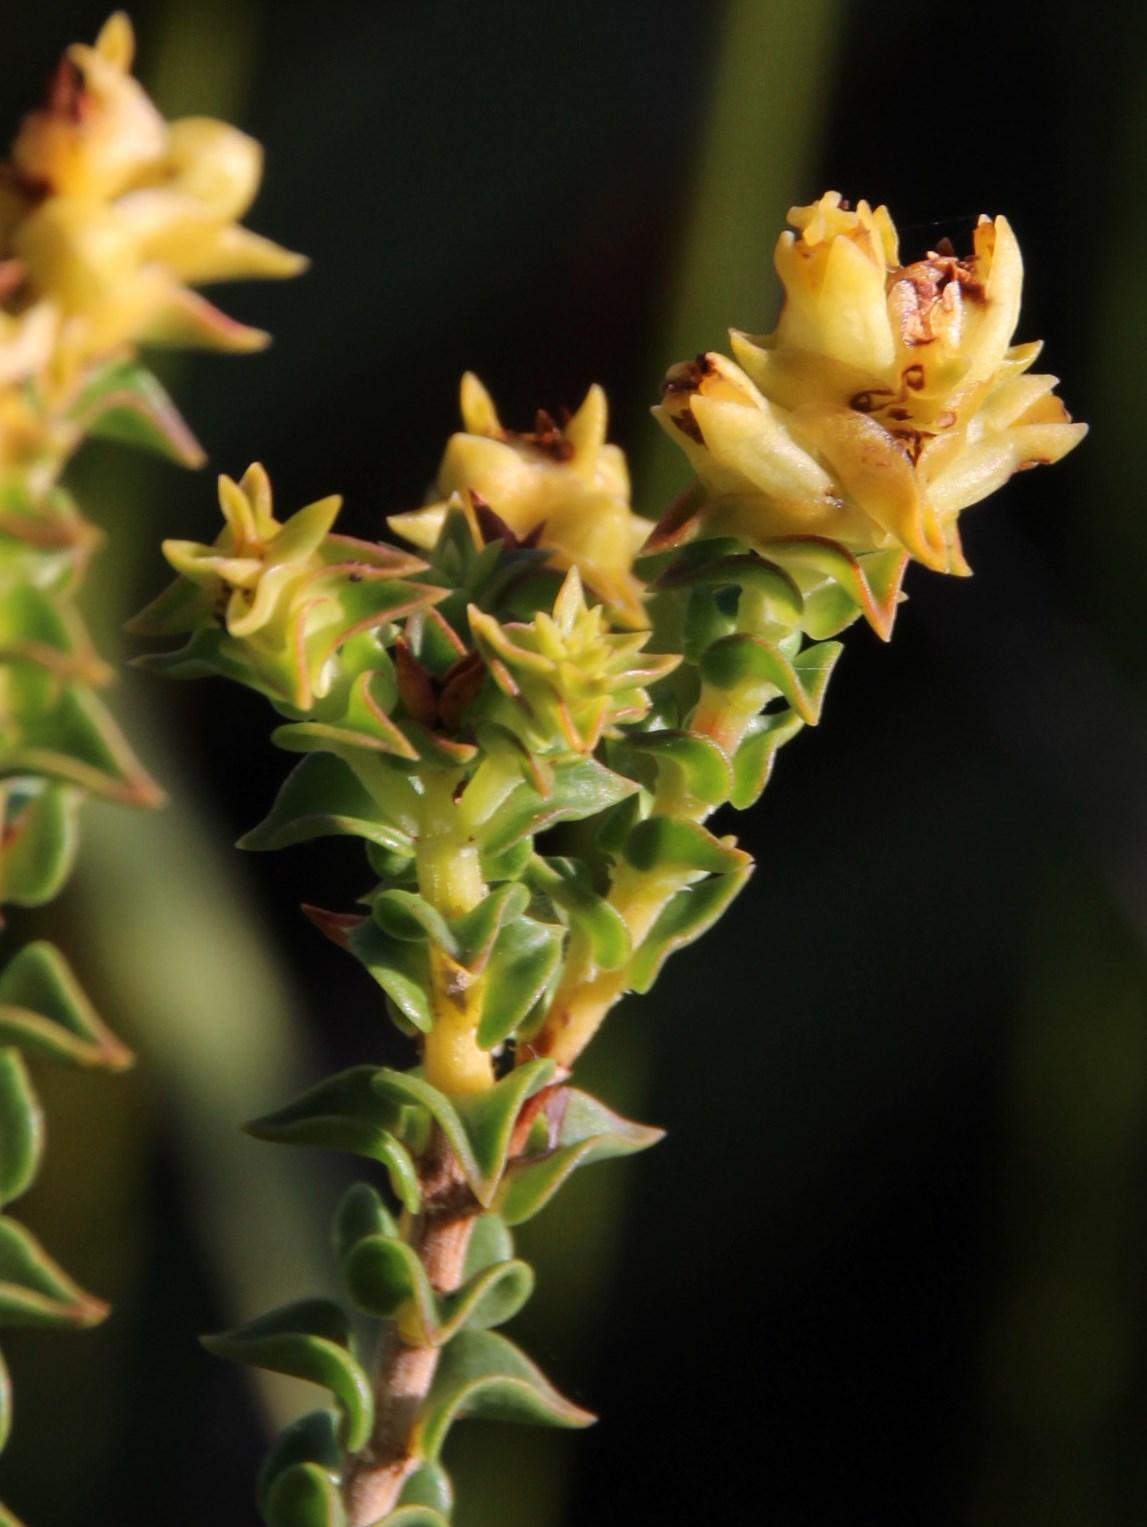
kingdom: Plantae
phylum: Tracheophyta
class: Magnoliopsida
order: Myrtales
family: Penaeaceae
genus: Penaea
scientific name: Penaea mucronata
